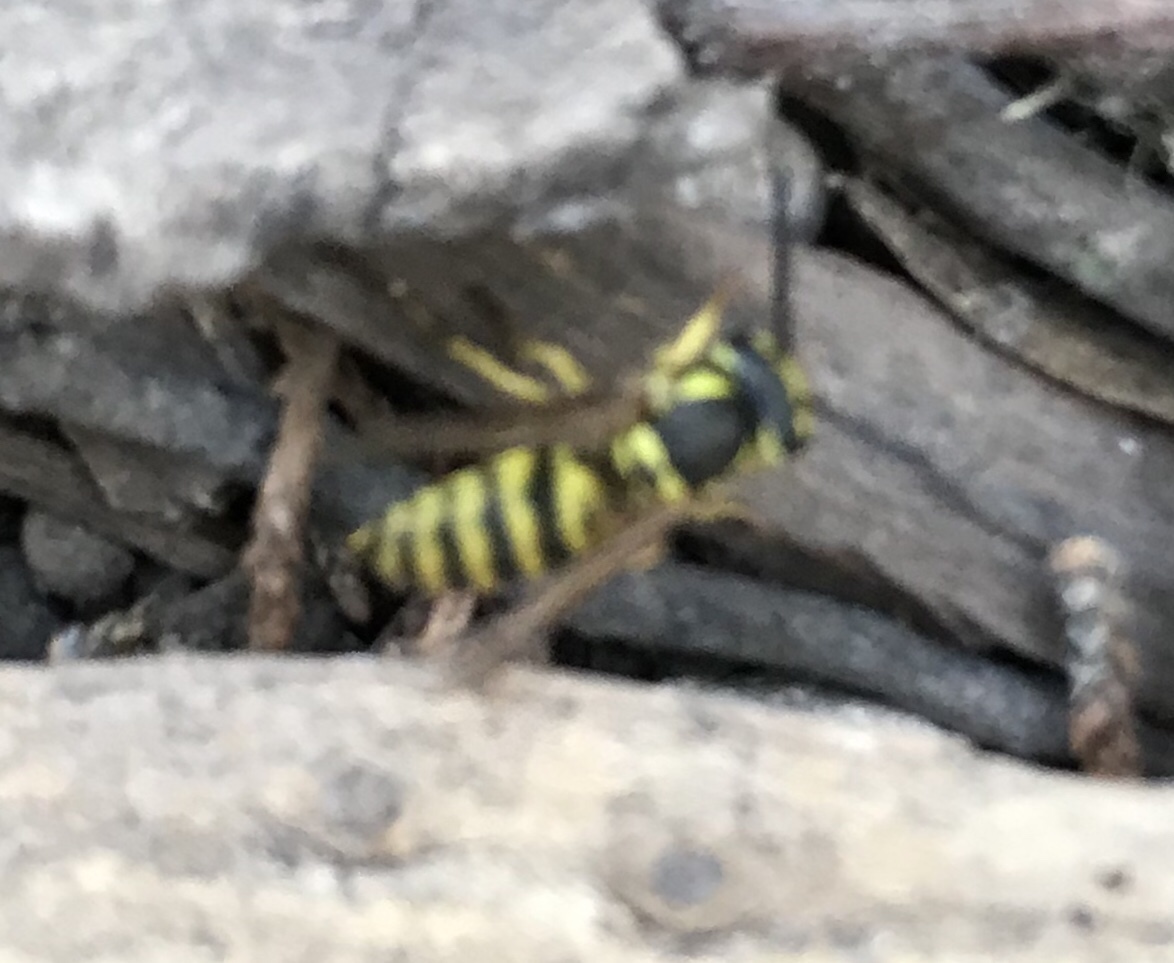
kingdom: Animalia
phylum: Arthropoda
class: Insecta
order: Hymenoptera
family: Vespidae
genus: Vespula
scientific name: Vespula maculifrons
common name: Eastern yellowjacket
